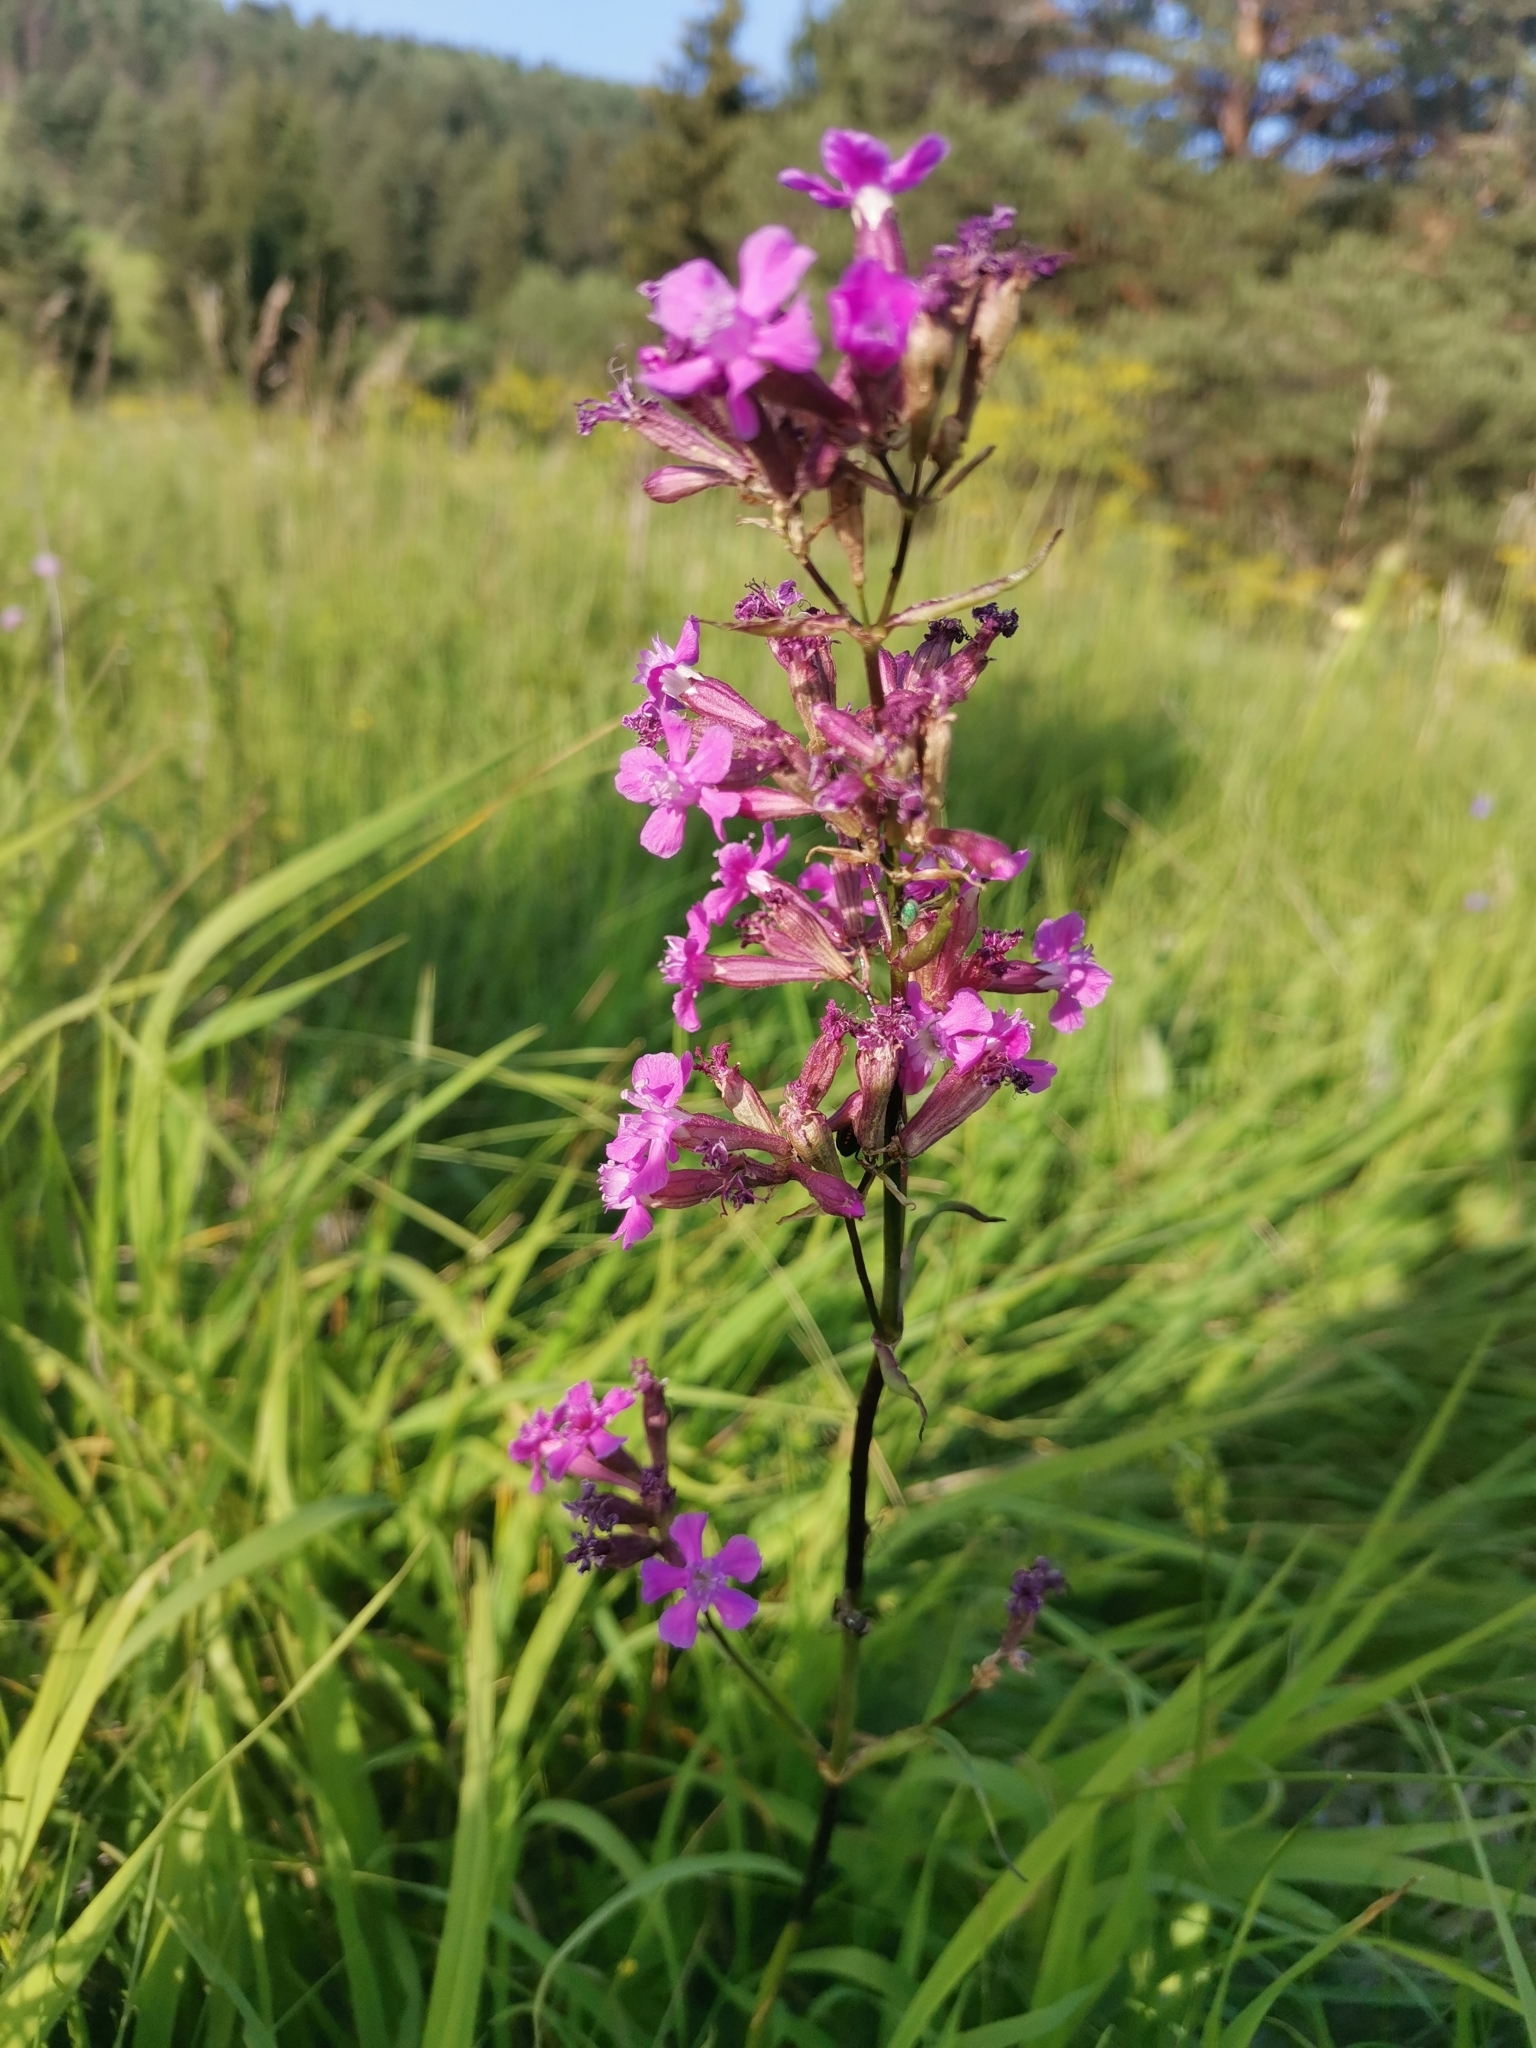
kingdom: Plantae
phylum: Tracheophyta
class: Magnoliopsida
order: Caryophyllales
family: Caryophyllaceae
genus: Viscaria
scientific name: Viscaria vulgaris
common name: Clammy campion
